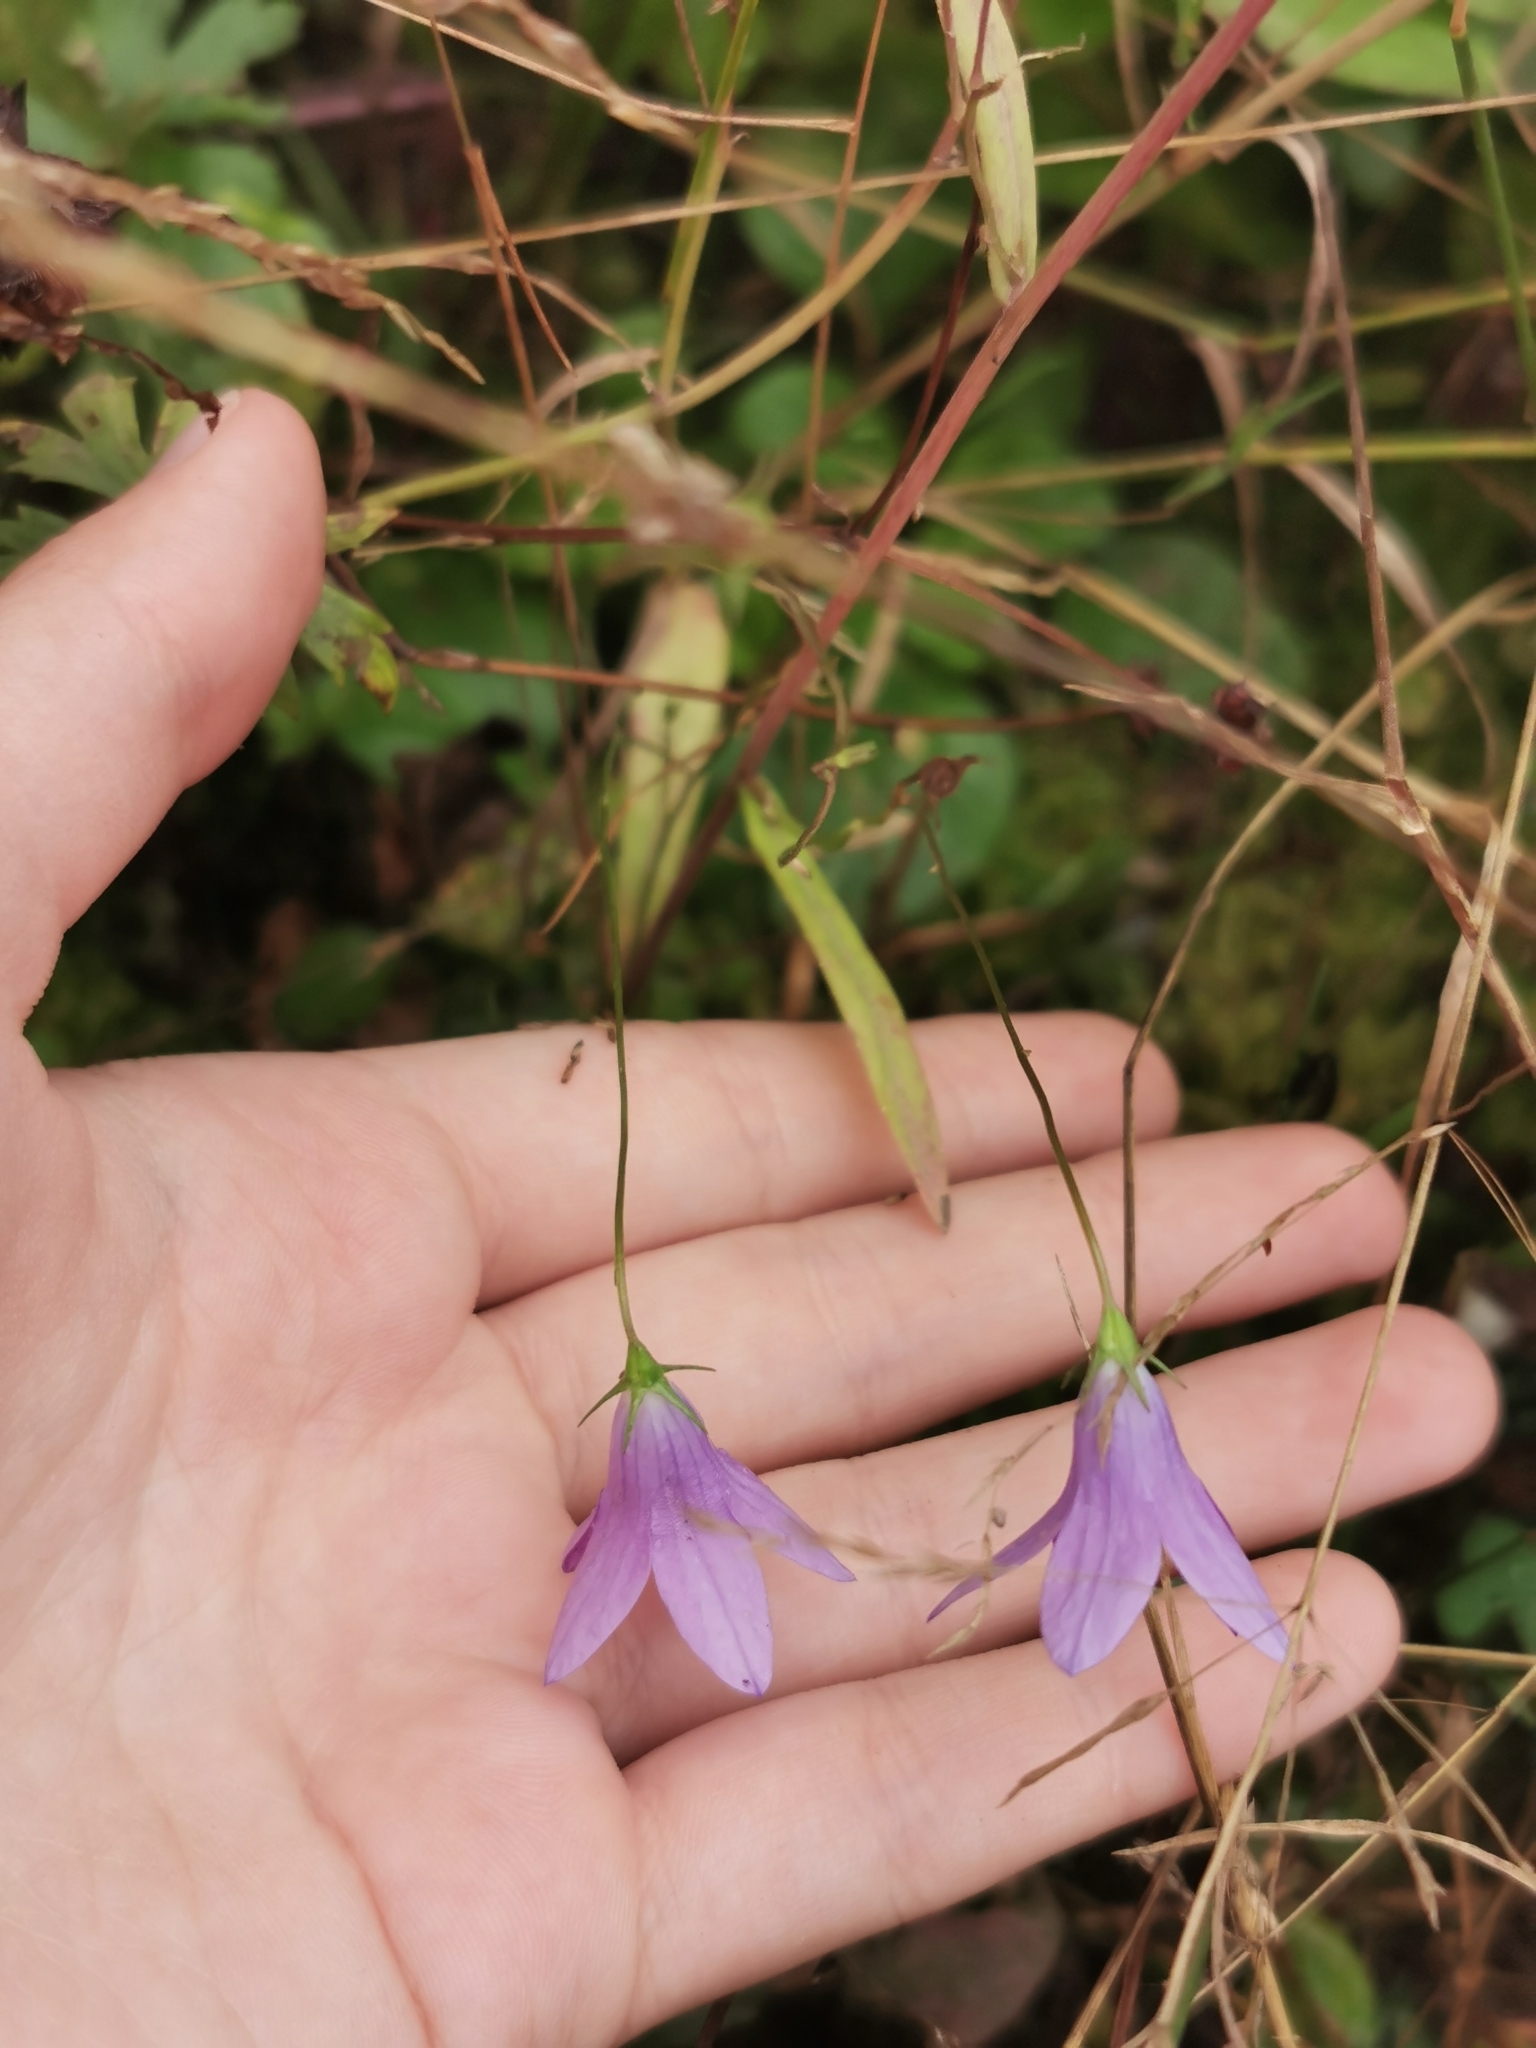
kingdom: Plantae
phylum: Tracheophyta
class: Magnoliopsida
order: Asterales
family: Campanulaceae
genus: Campanula
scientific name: Campanula patula
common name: Spreading bellflower
